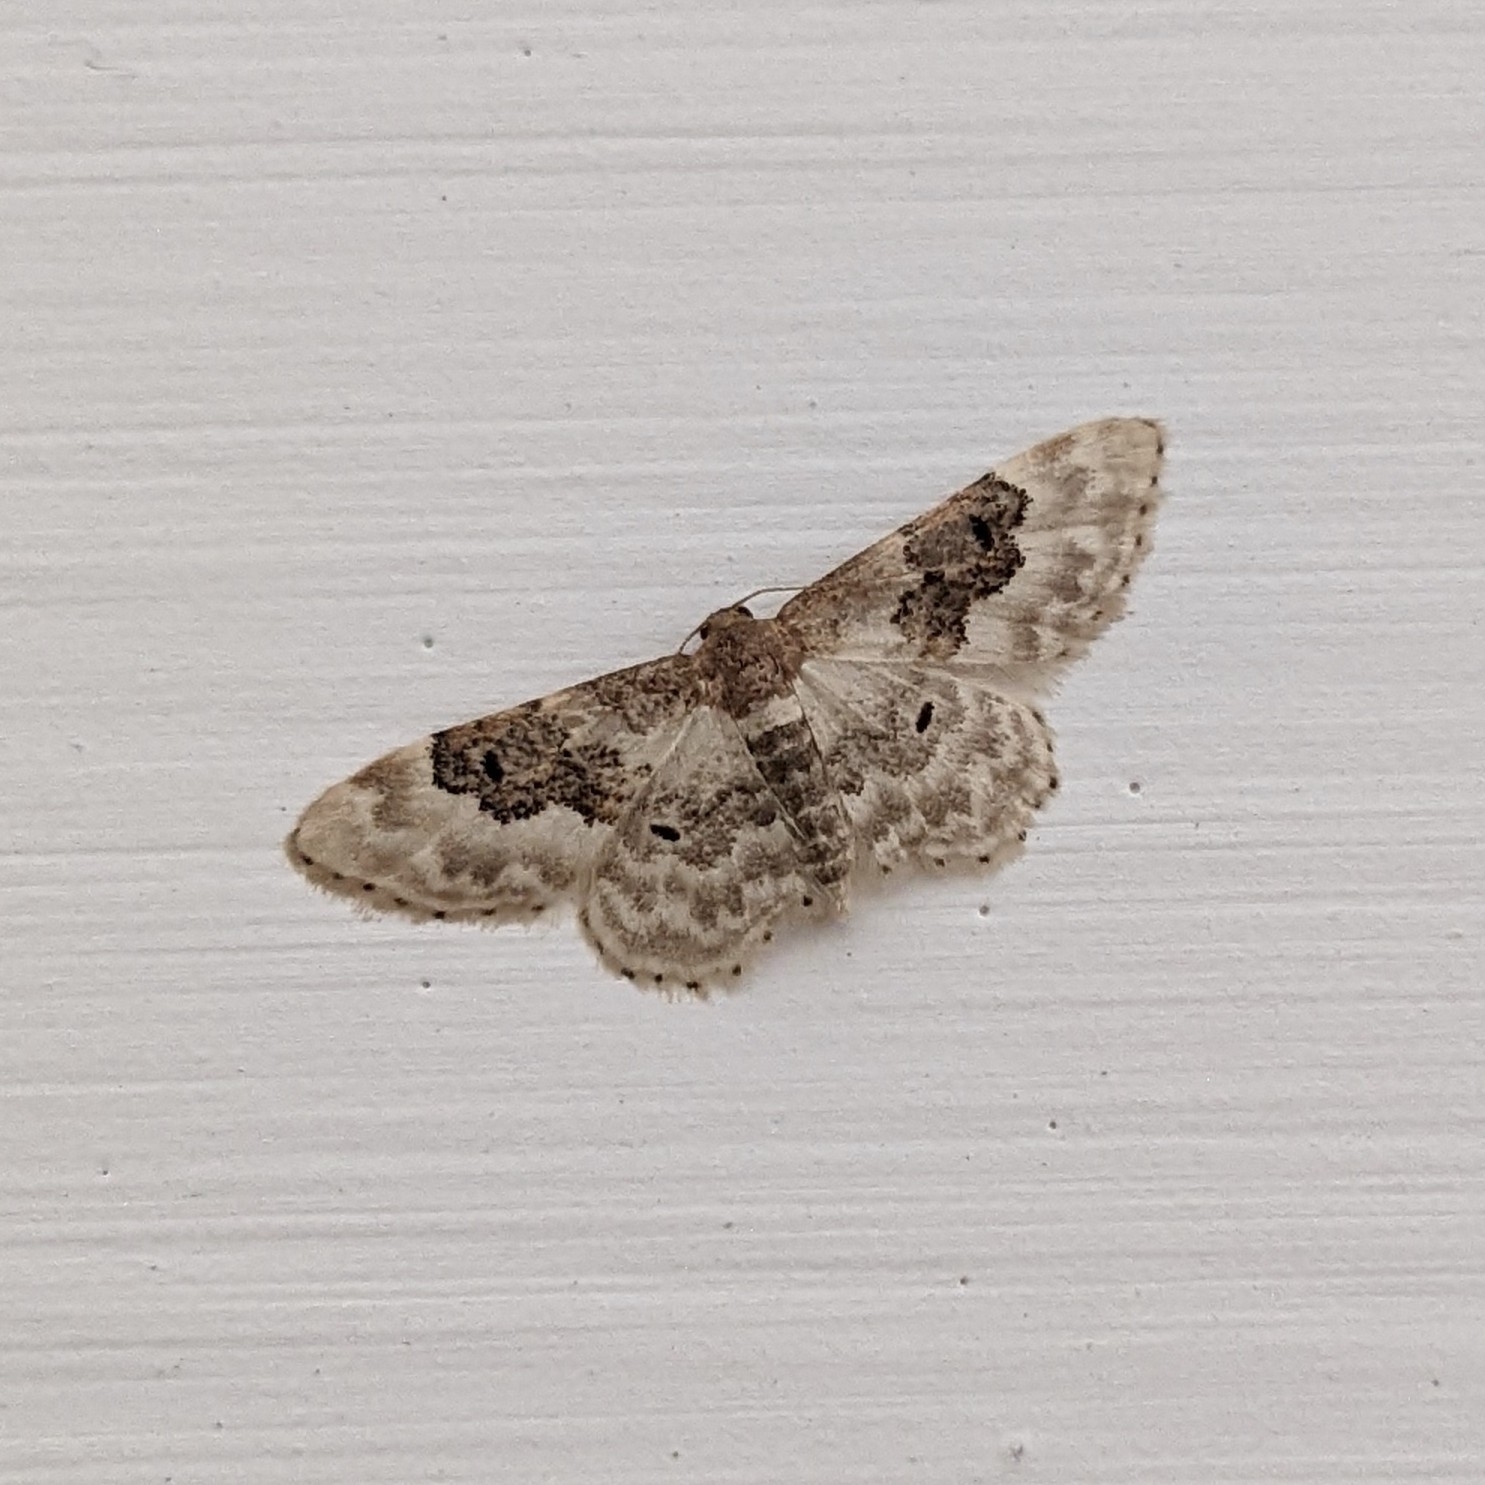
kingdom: Animalia
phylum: Arthropoda
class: Insecta
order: Lepidoptera
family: Geometridae
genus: Idaea
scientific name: Idaea rusticata
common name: Least carpet
